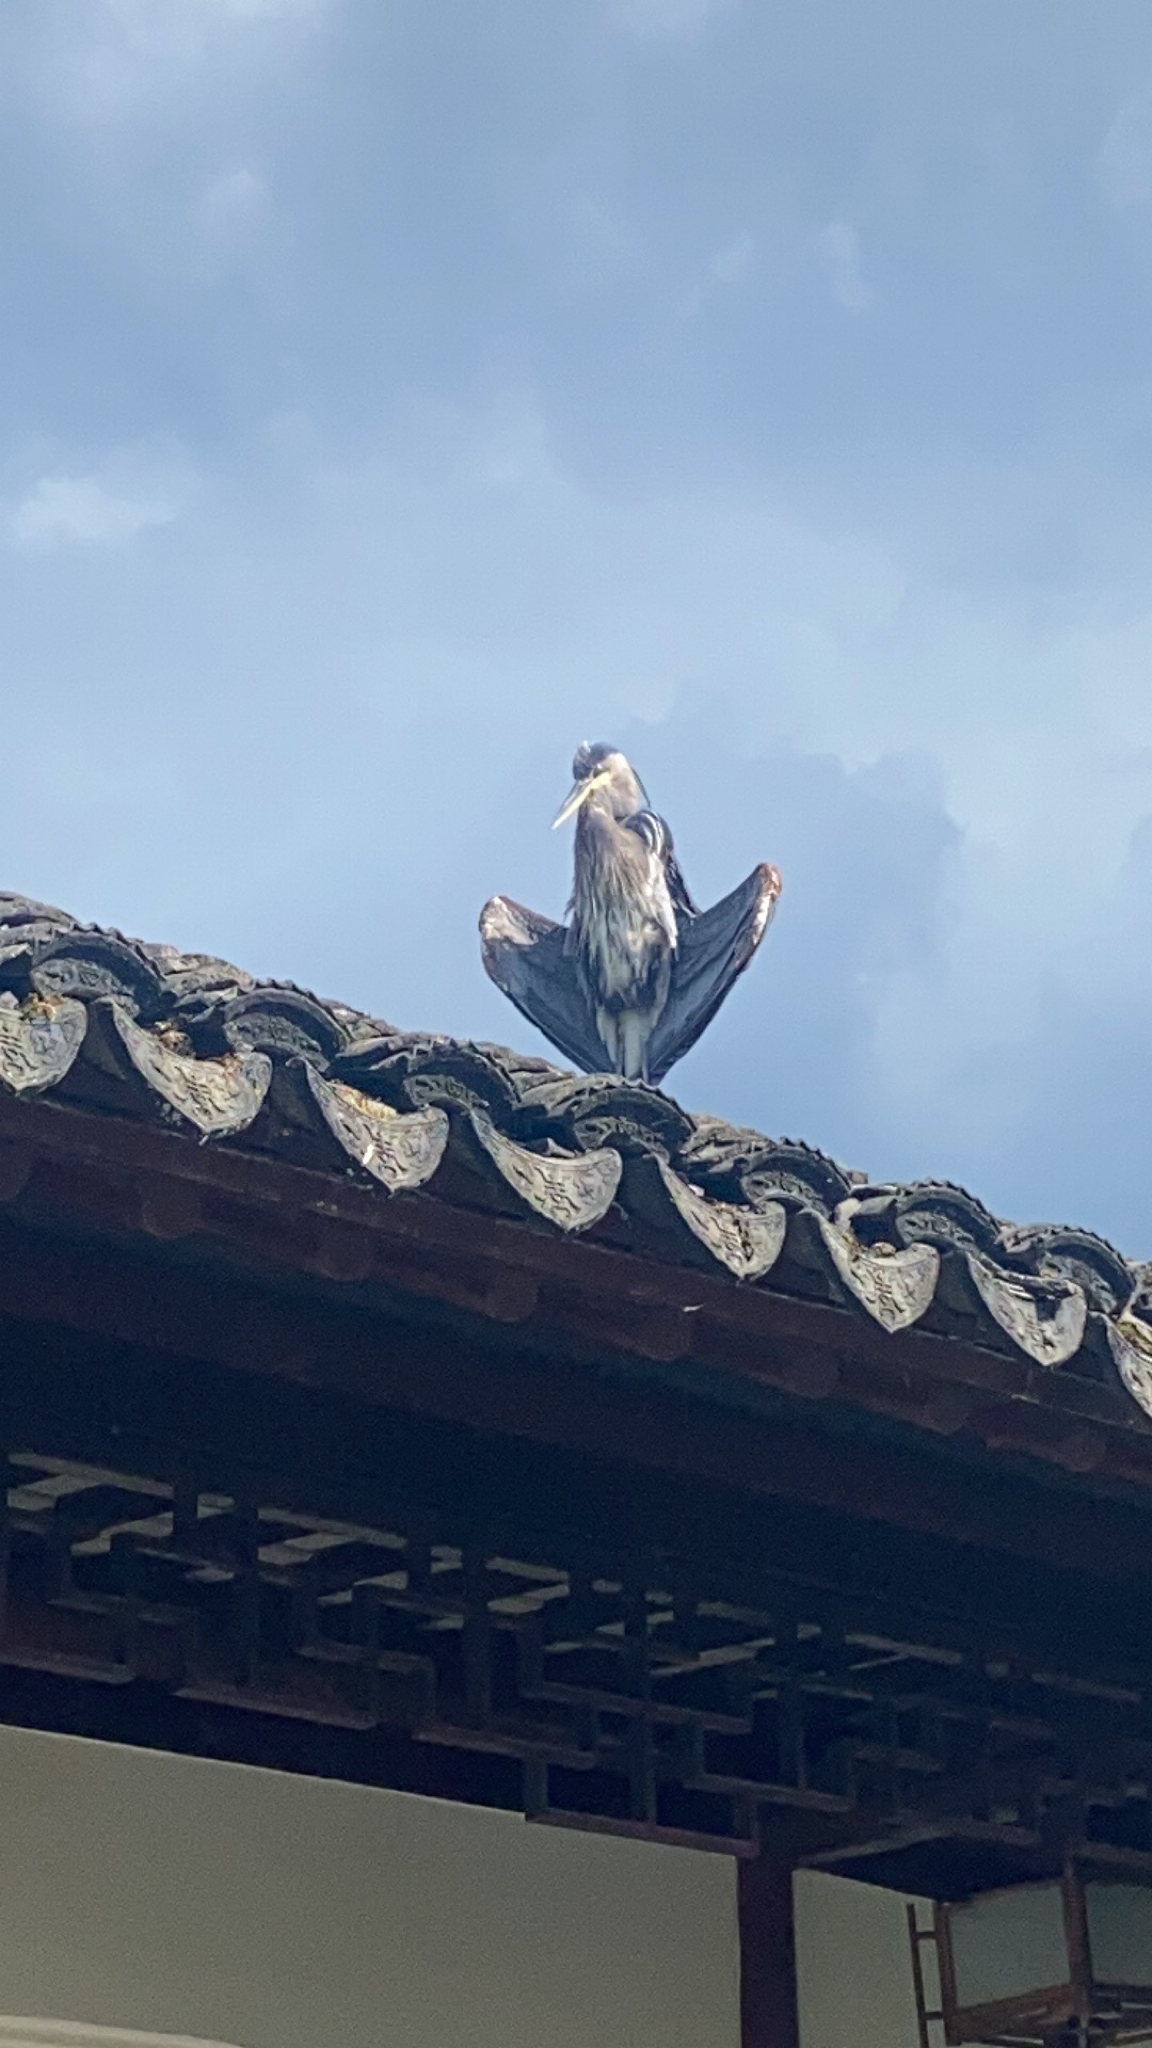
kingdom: Animalia
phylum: Chordata
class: Aves
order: Pelecaniformes
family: Ardeidae
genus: Ardea
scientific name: Ardea herodias
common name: Great blue heron
